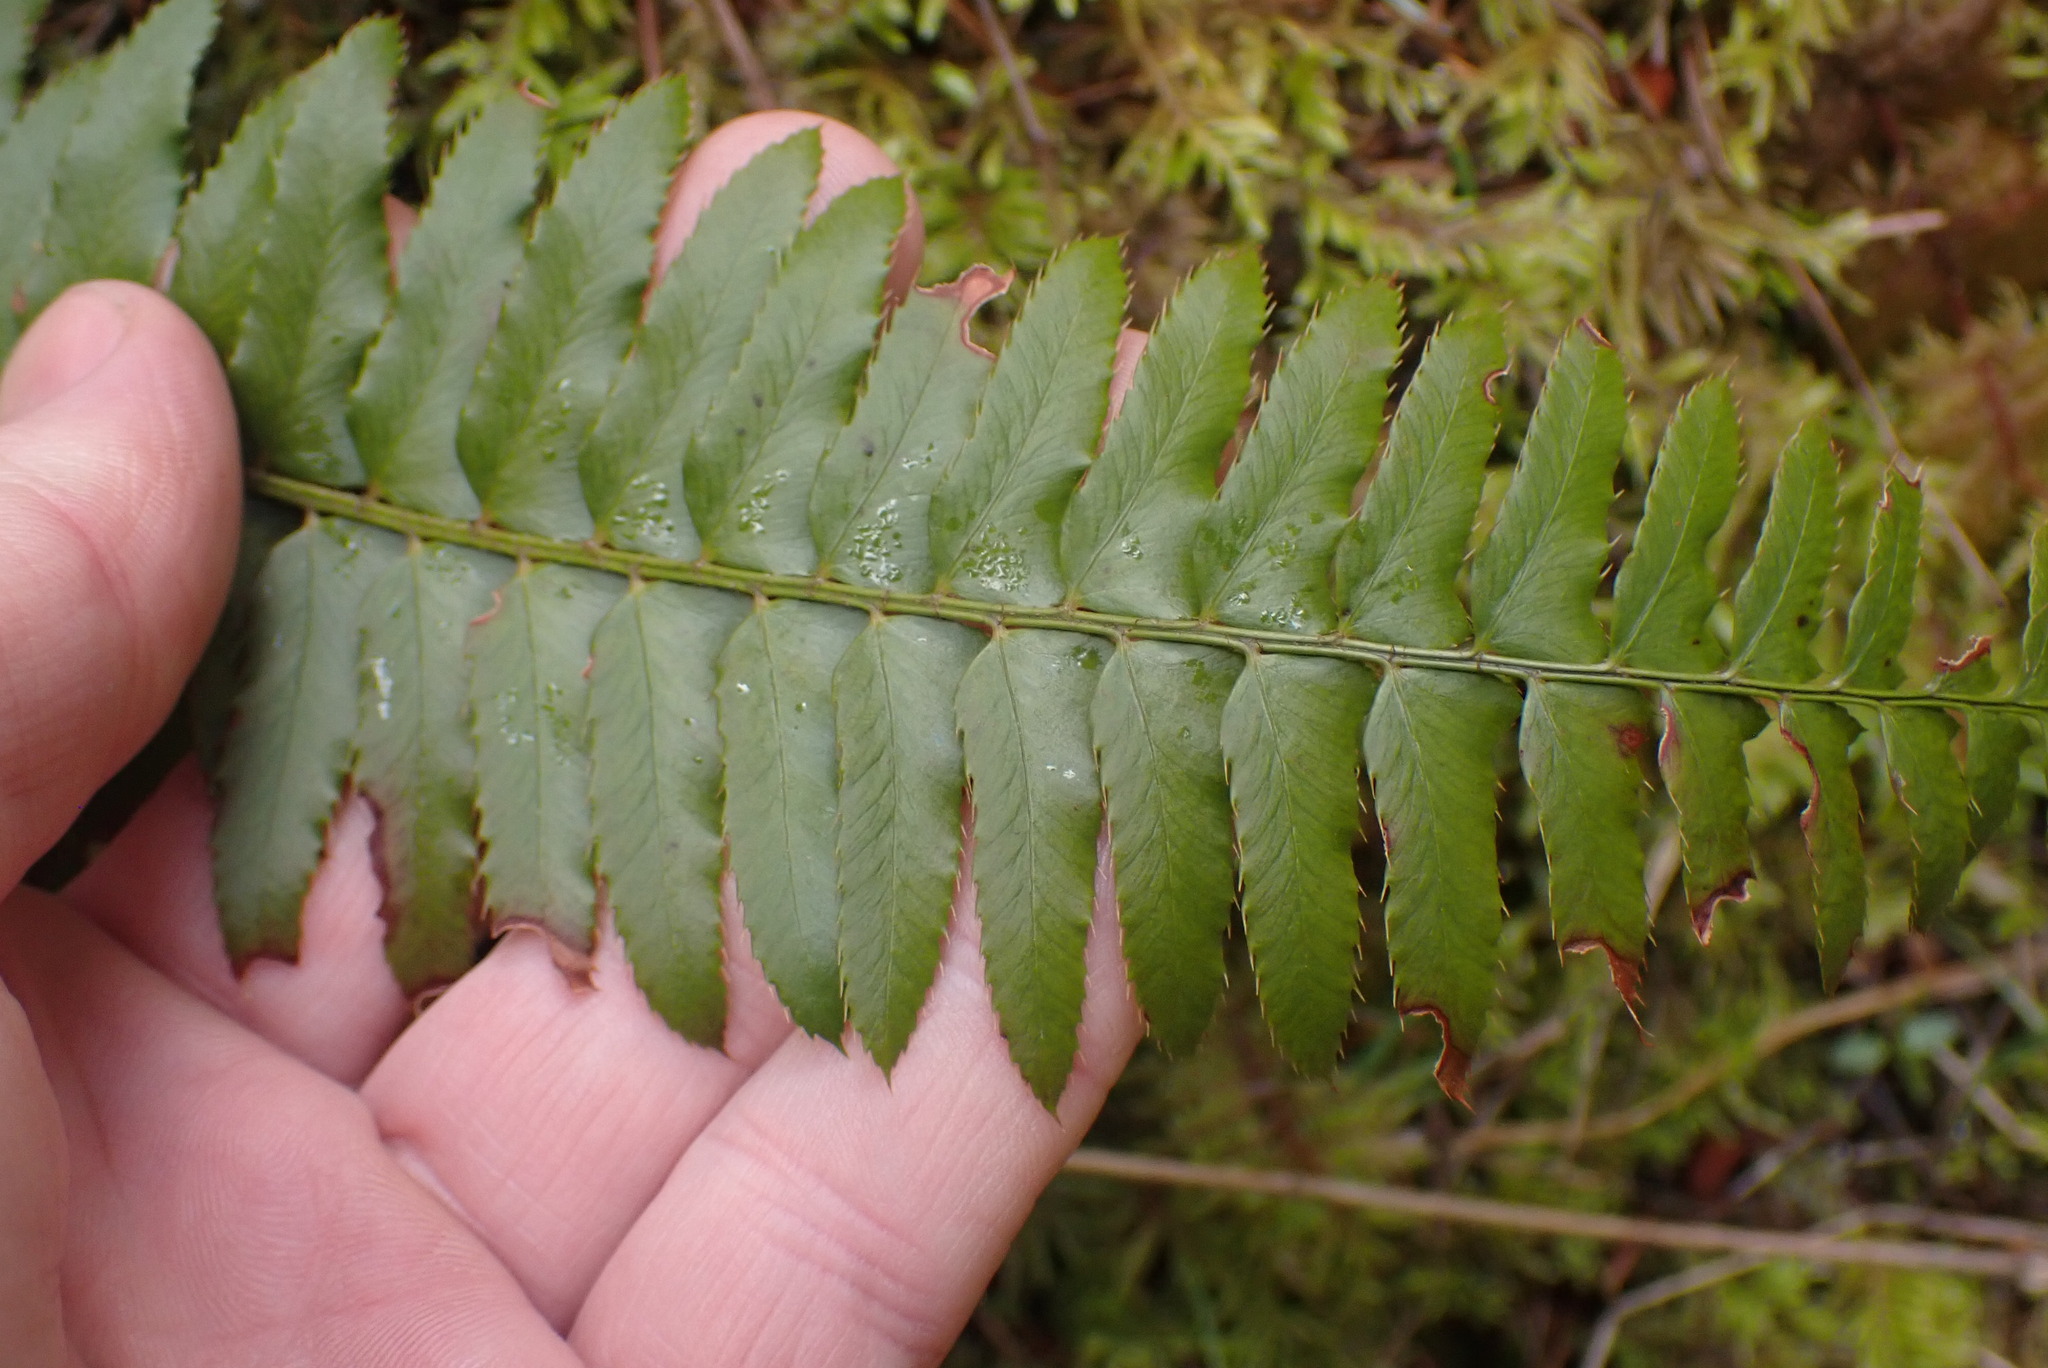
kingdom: Plantae
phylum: Tracheophyta
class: Polypodiopsida
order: Polypodiales
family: Dryopteridaceae
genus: Polystichum
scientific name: Polystichum munitum
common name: Western sword-fern
